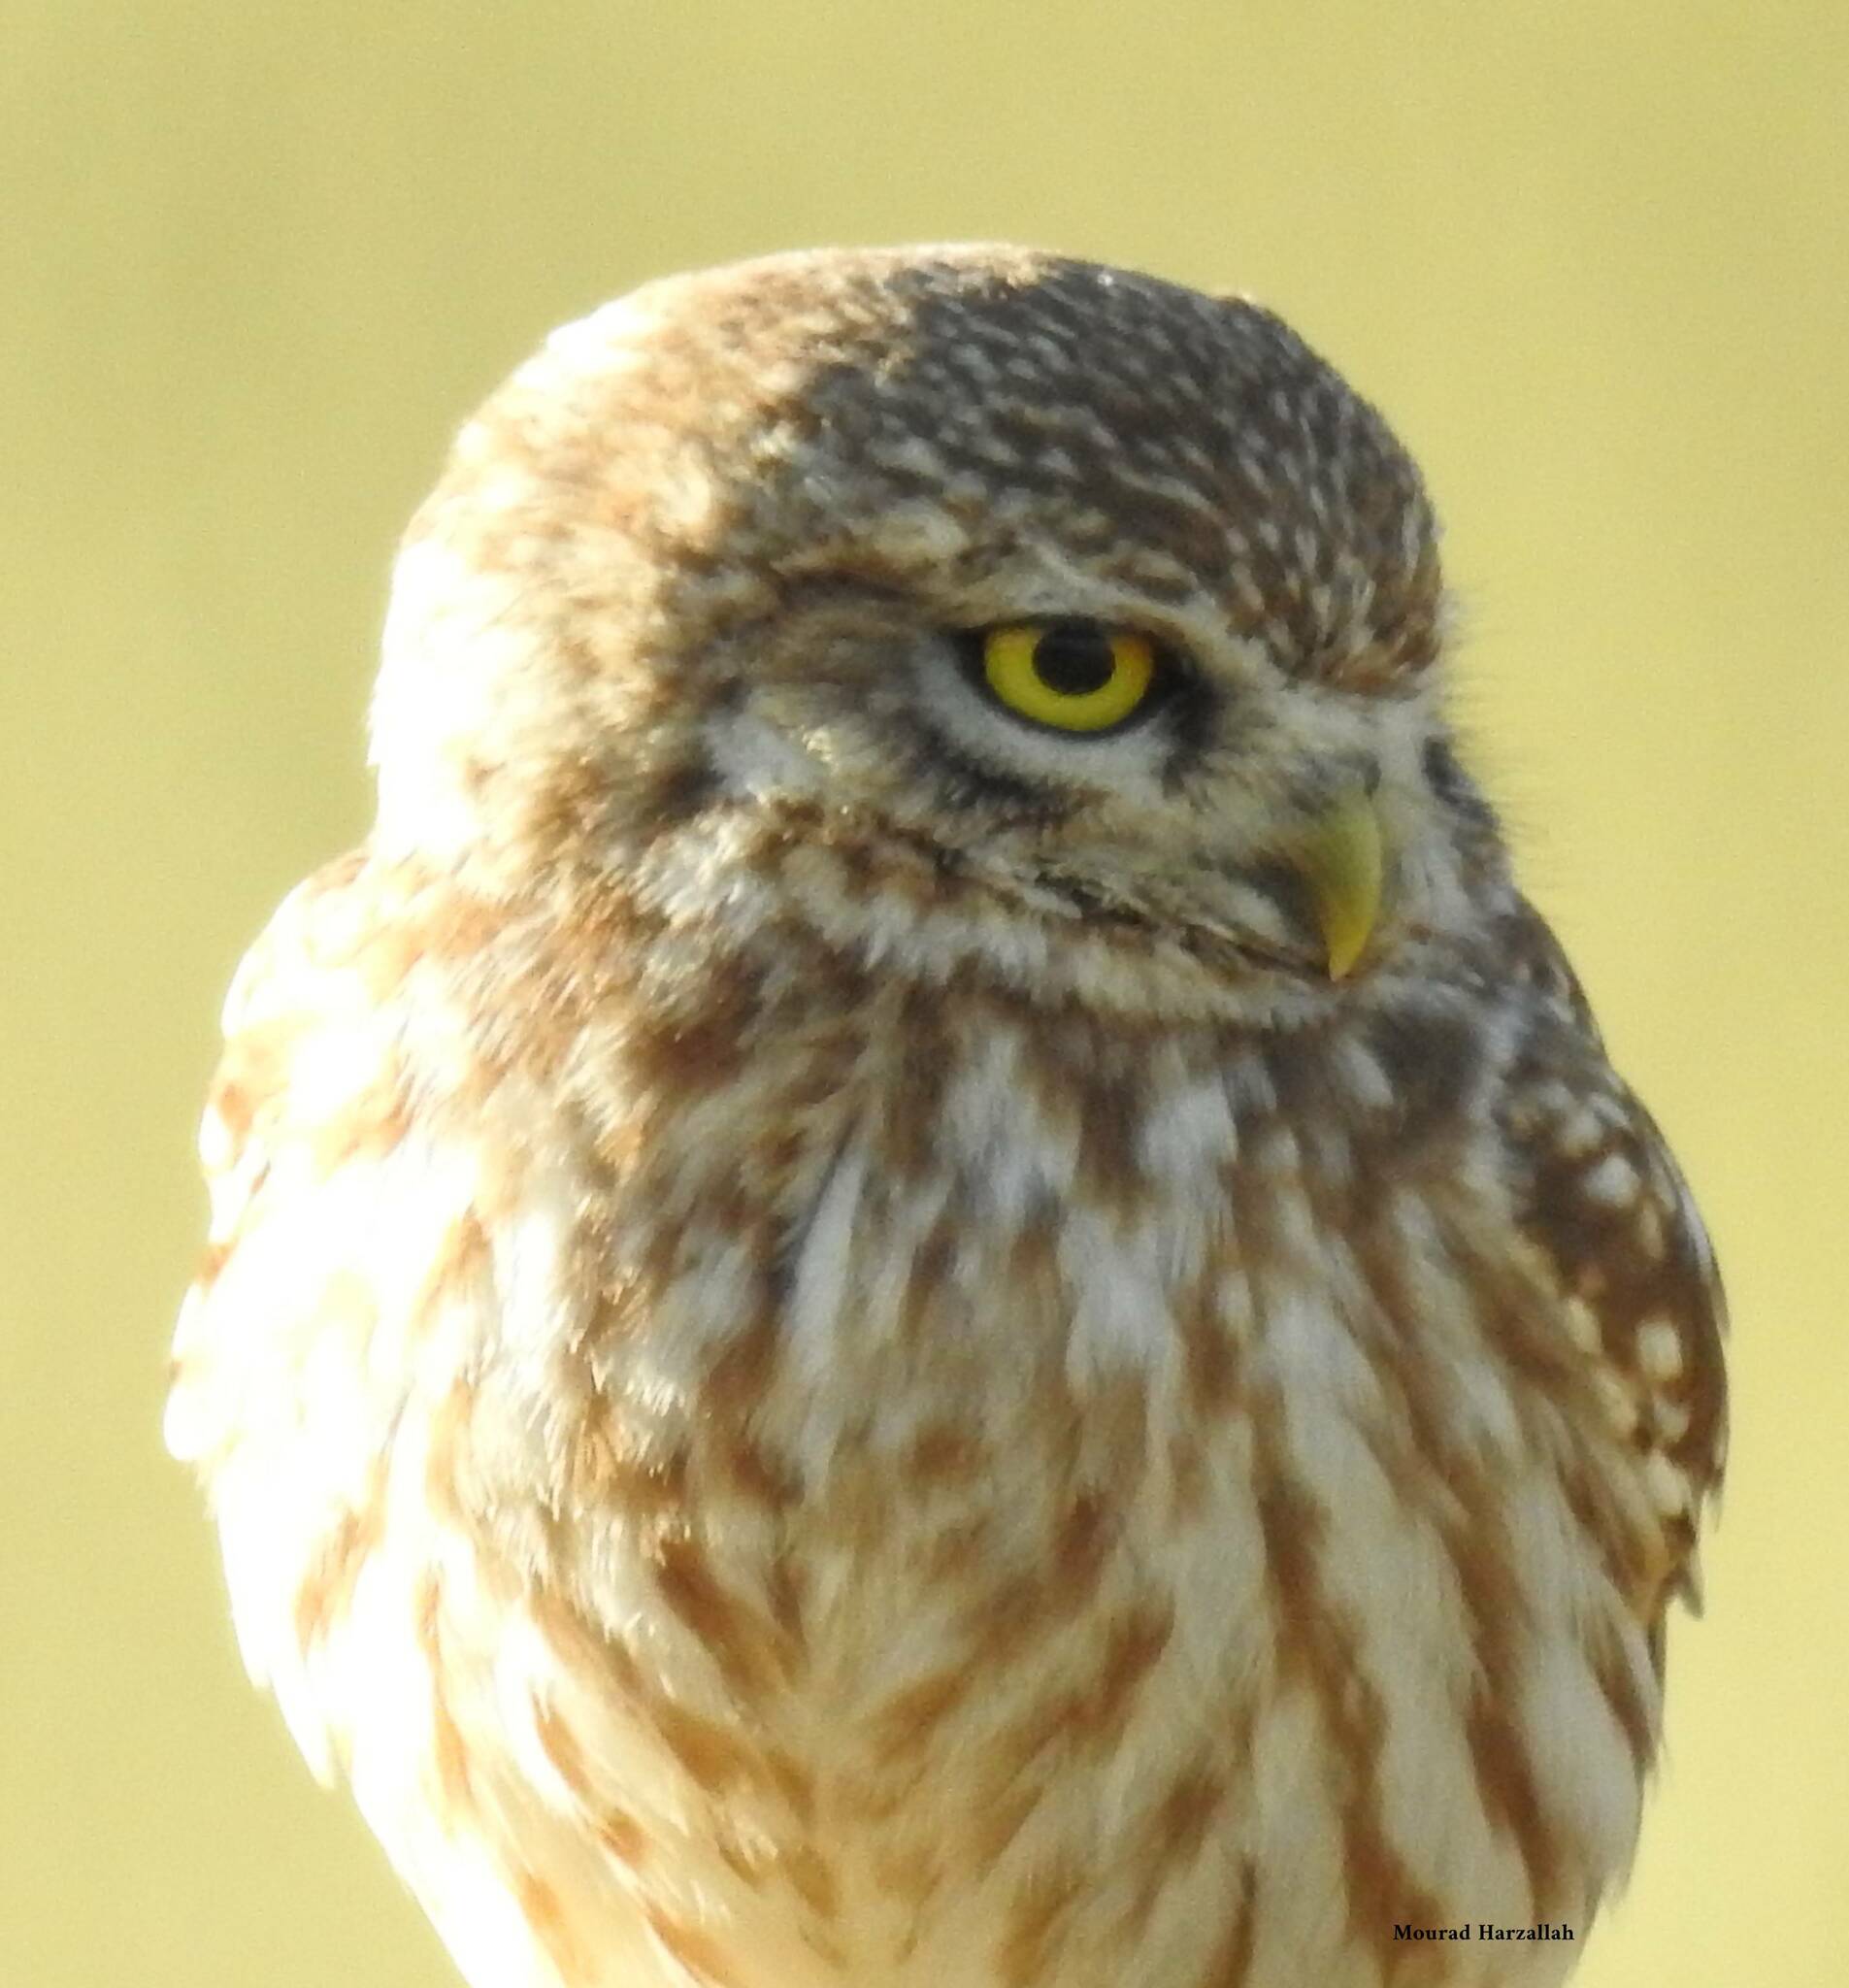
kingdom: Animalia
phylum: Chordata
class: Aves
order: Strigiformes
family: Strigidae
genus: Athene
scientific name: Athene noctua
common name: Little owl
